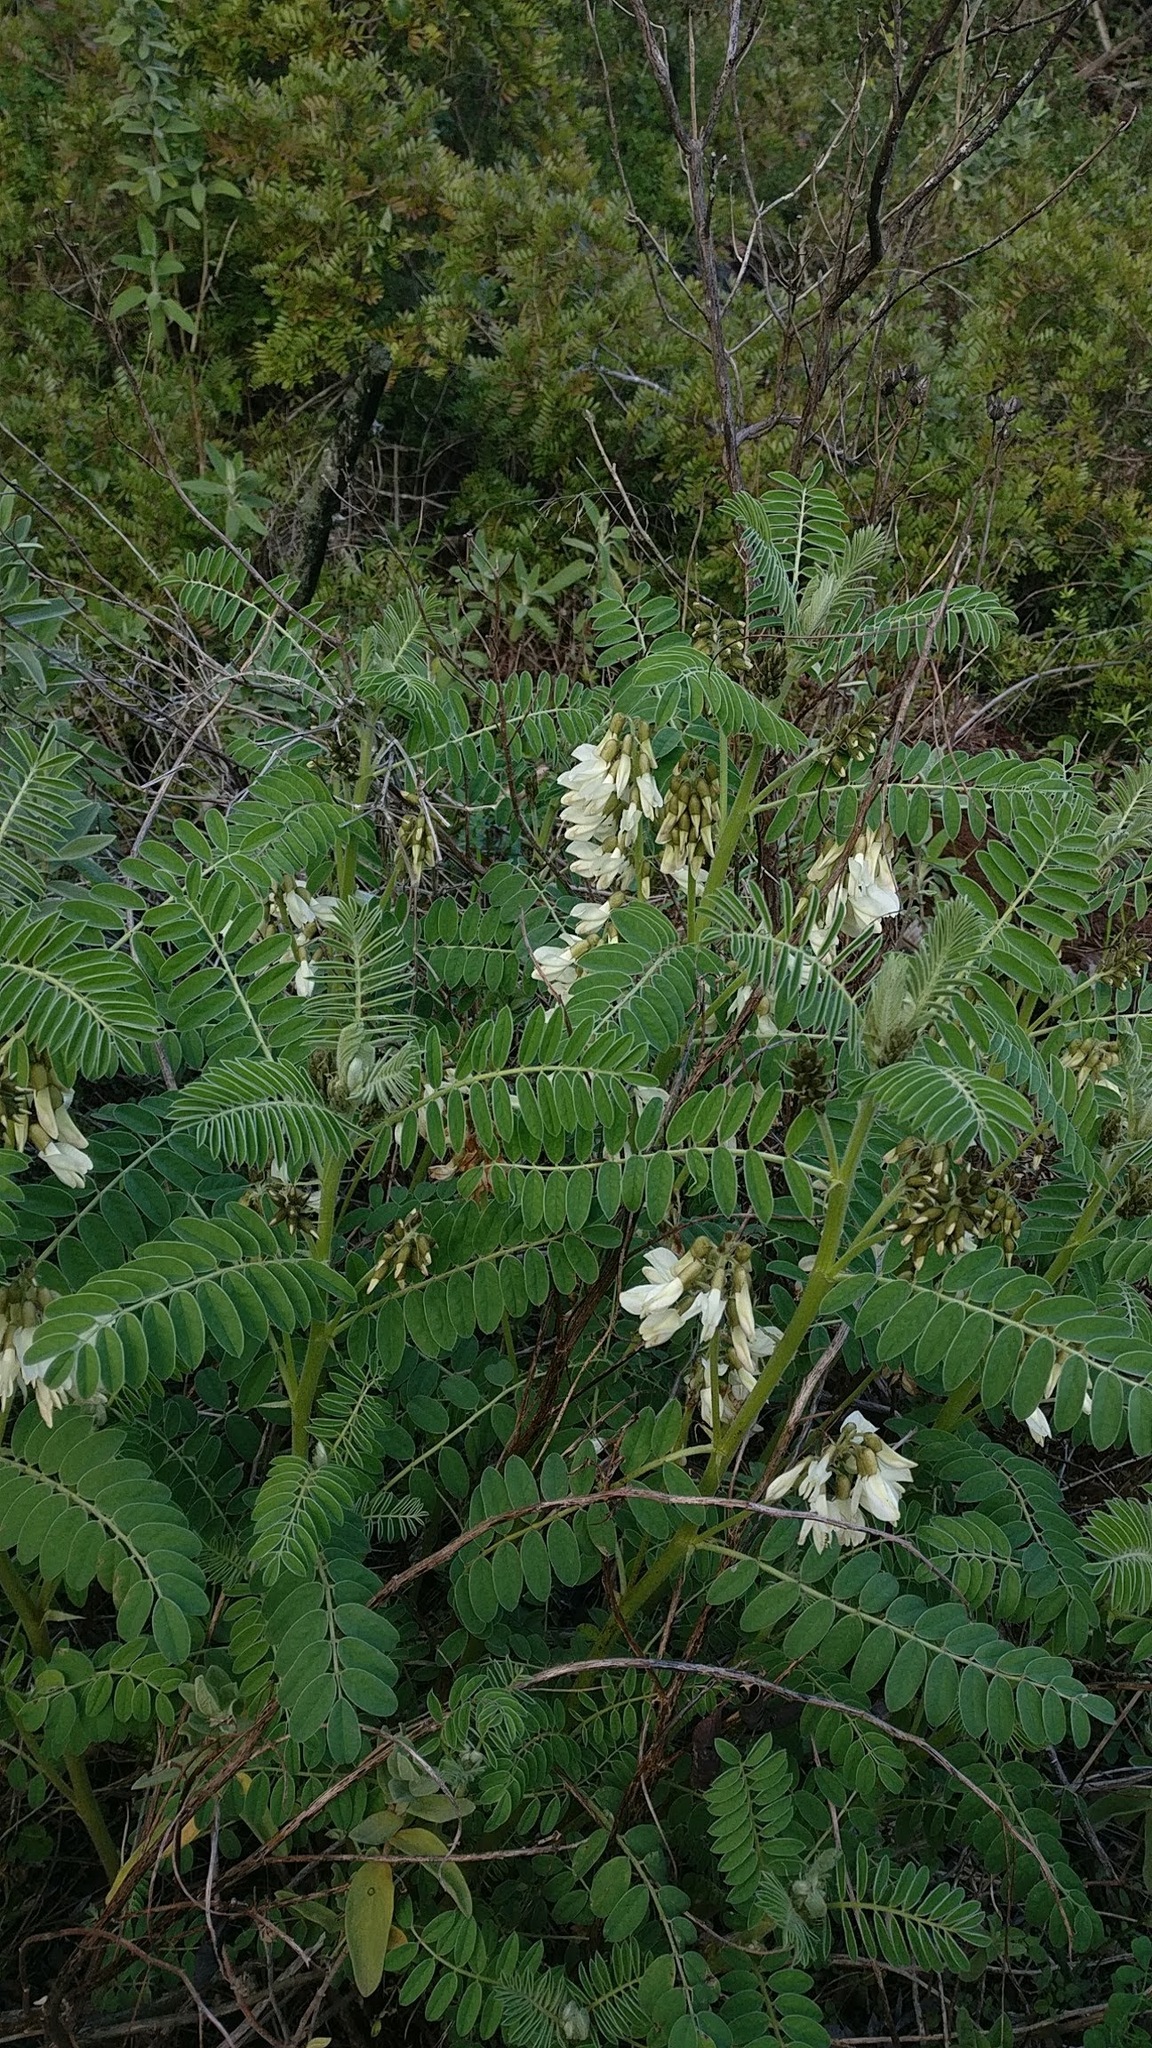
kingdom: Plantae
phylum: Tracheophyta
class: Magnoliopsida
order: Fabales
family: Fabaceae
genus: Erophaca
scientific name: Erophaca baetica
